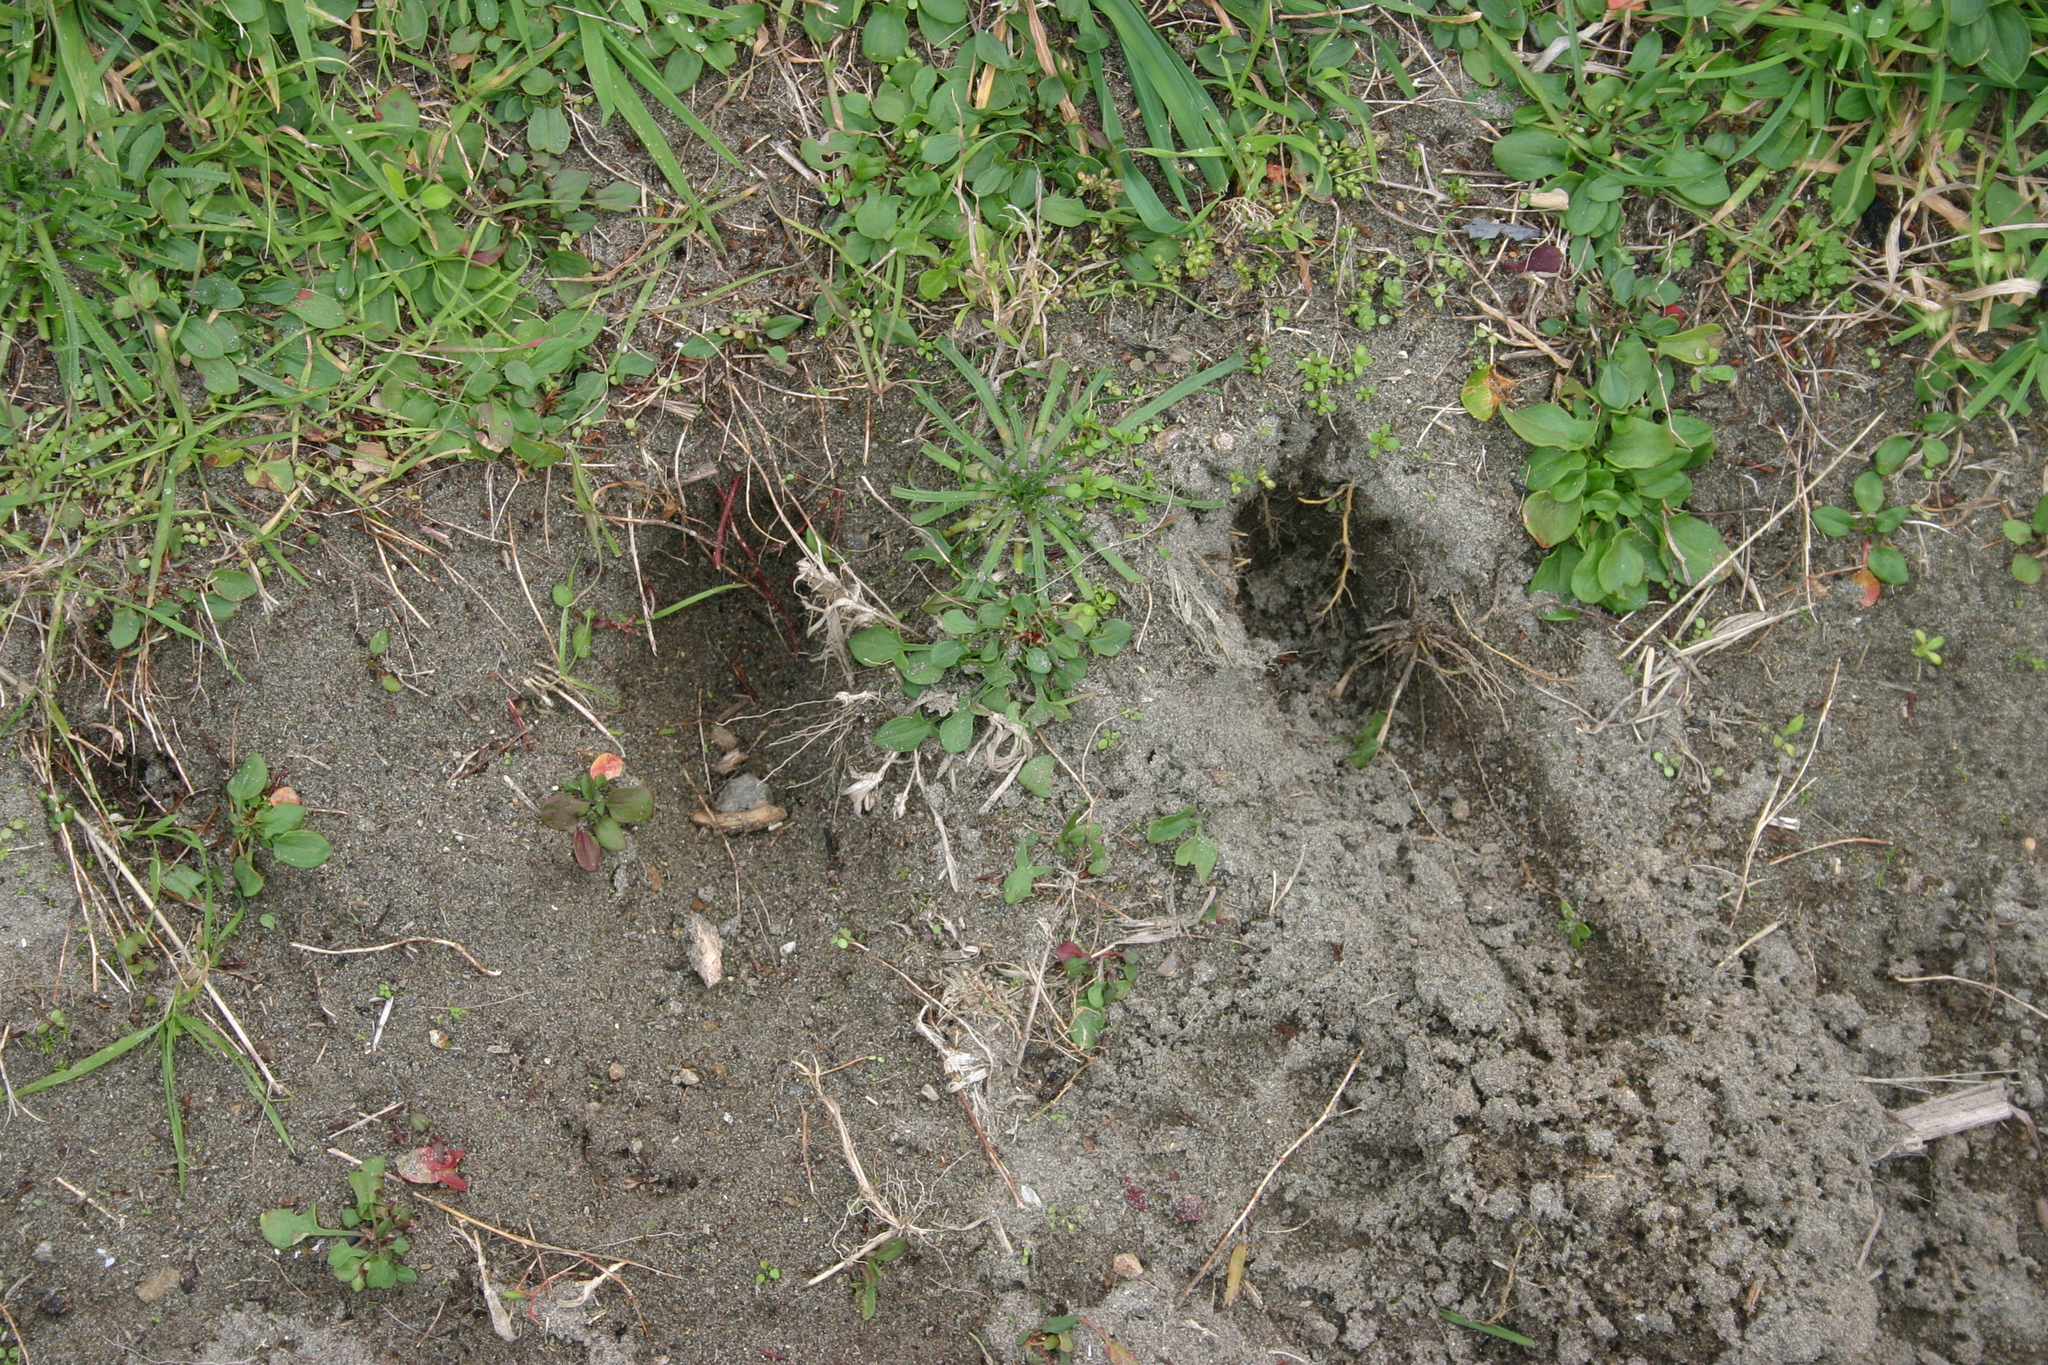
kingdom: Animalia
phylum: Chordata
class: Mammalia
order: Lagomorpha
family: Leporidae
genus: Oryctolagus
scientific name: Oryctolagus cuniculus
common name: European rabbit
